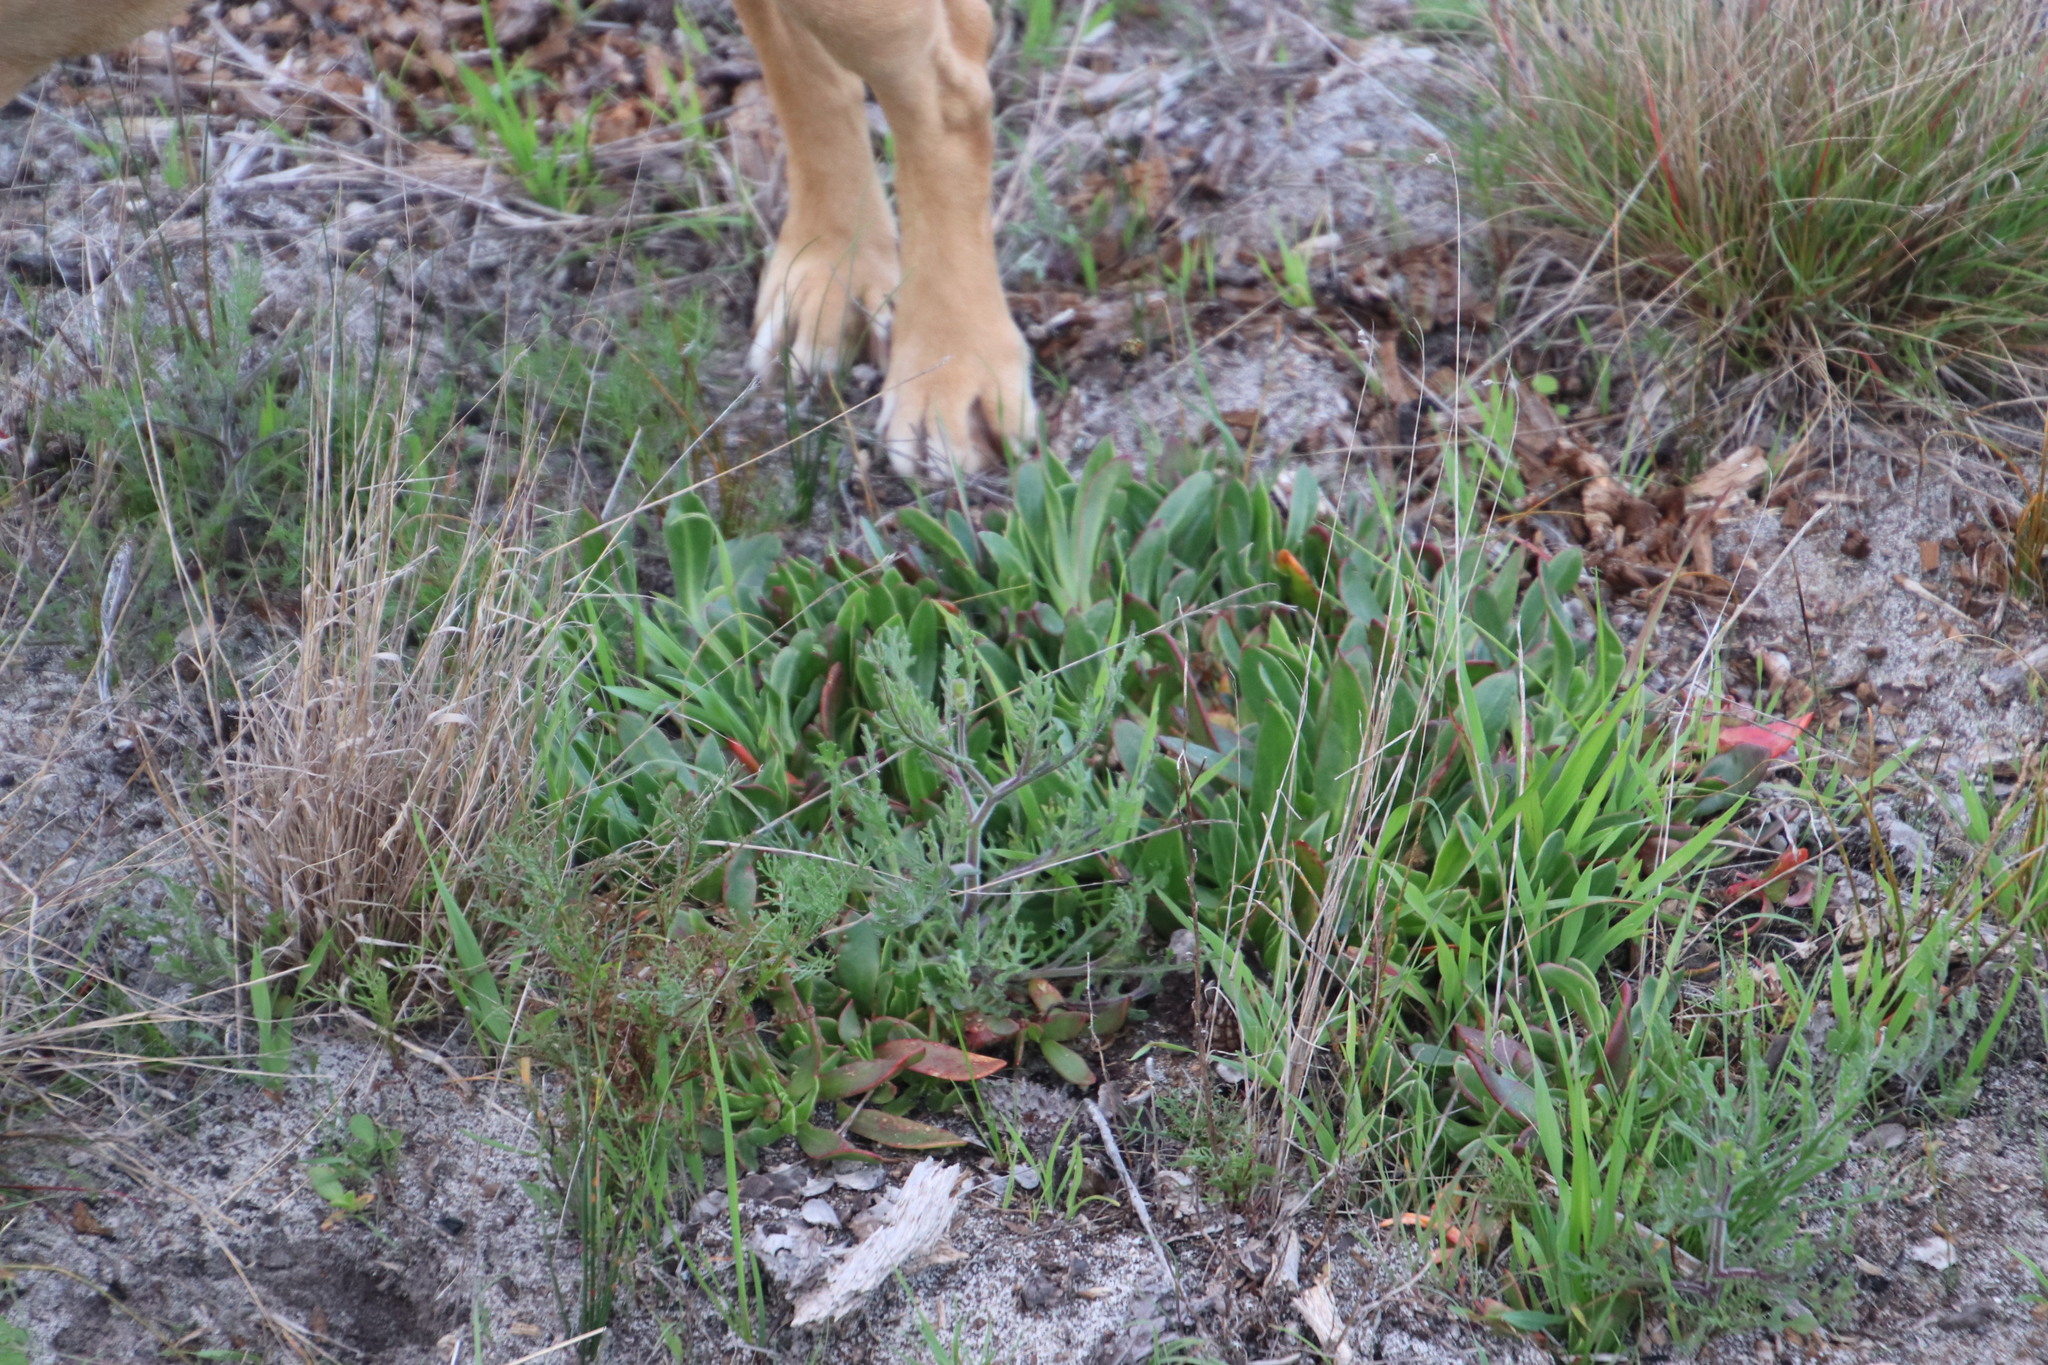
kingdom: Plantae
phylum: Tracheophyta
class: Magnoliopsida
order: Caryophyllales
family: Aizoaceae
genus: Skiatophytum
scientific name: Skiatophytum tripolium
